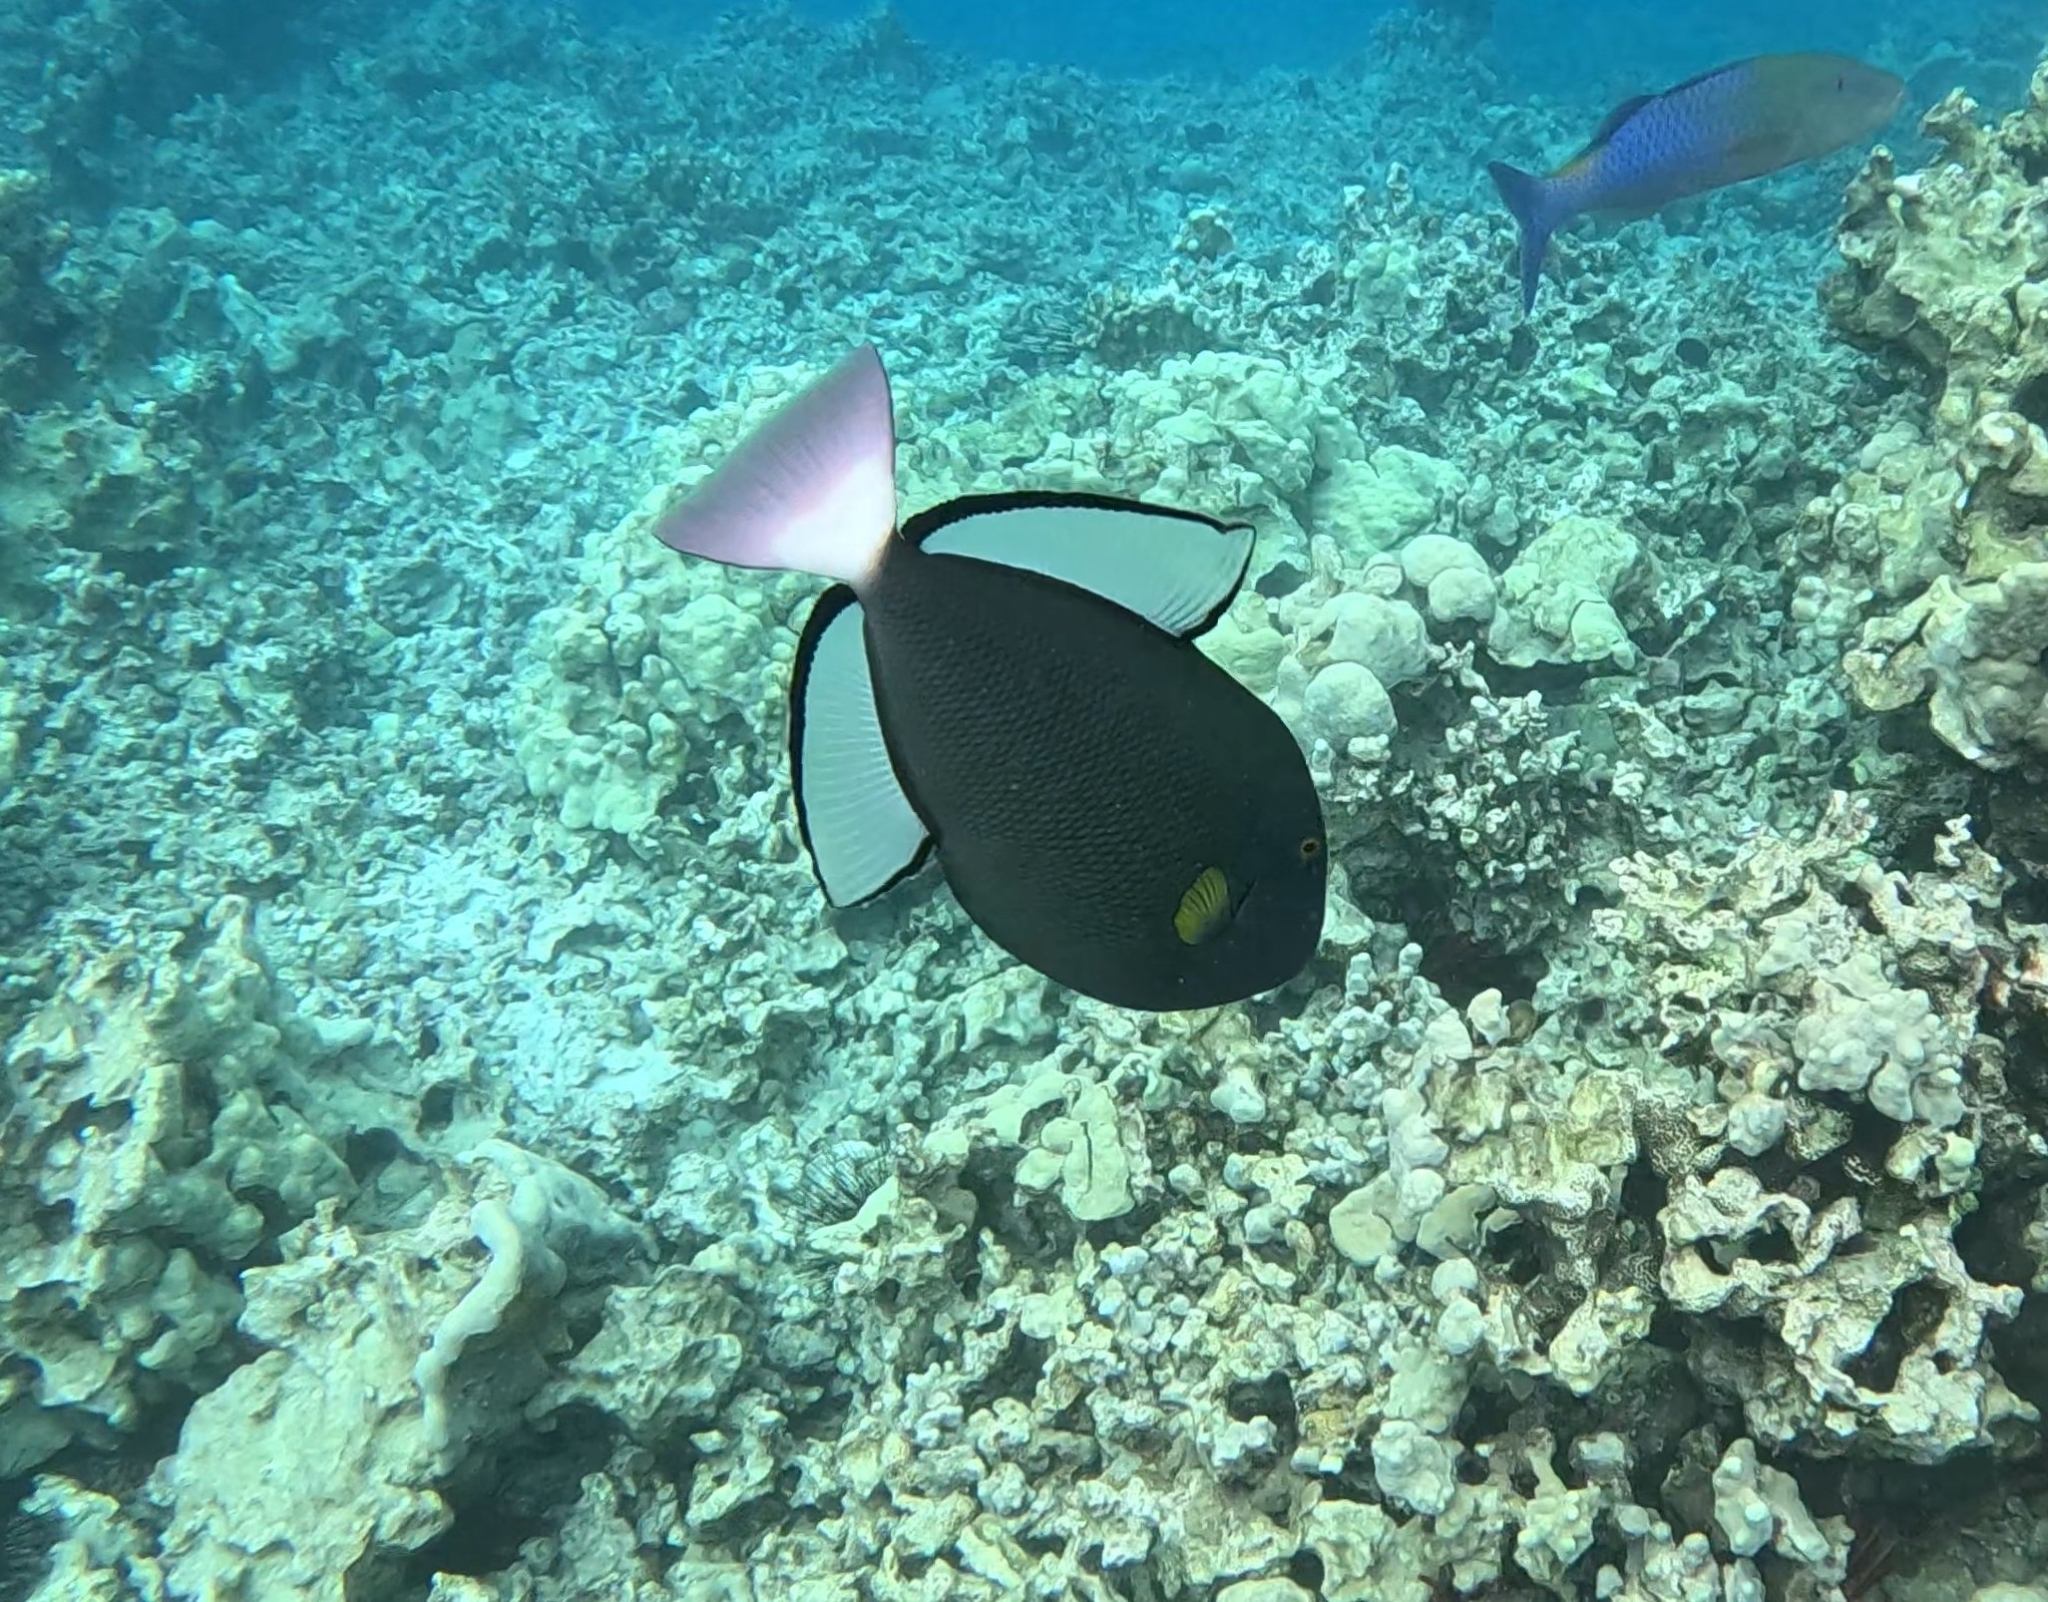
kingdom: Animalia
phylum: Chordata
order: Tetraodontiformes
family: Balistidae
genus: Melichthys
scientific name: Melichthys vidua
